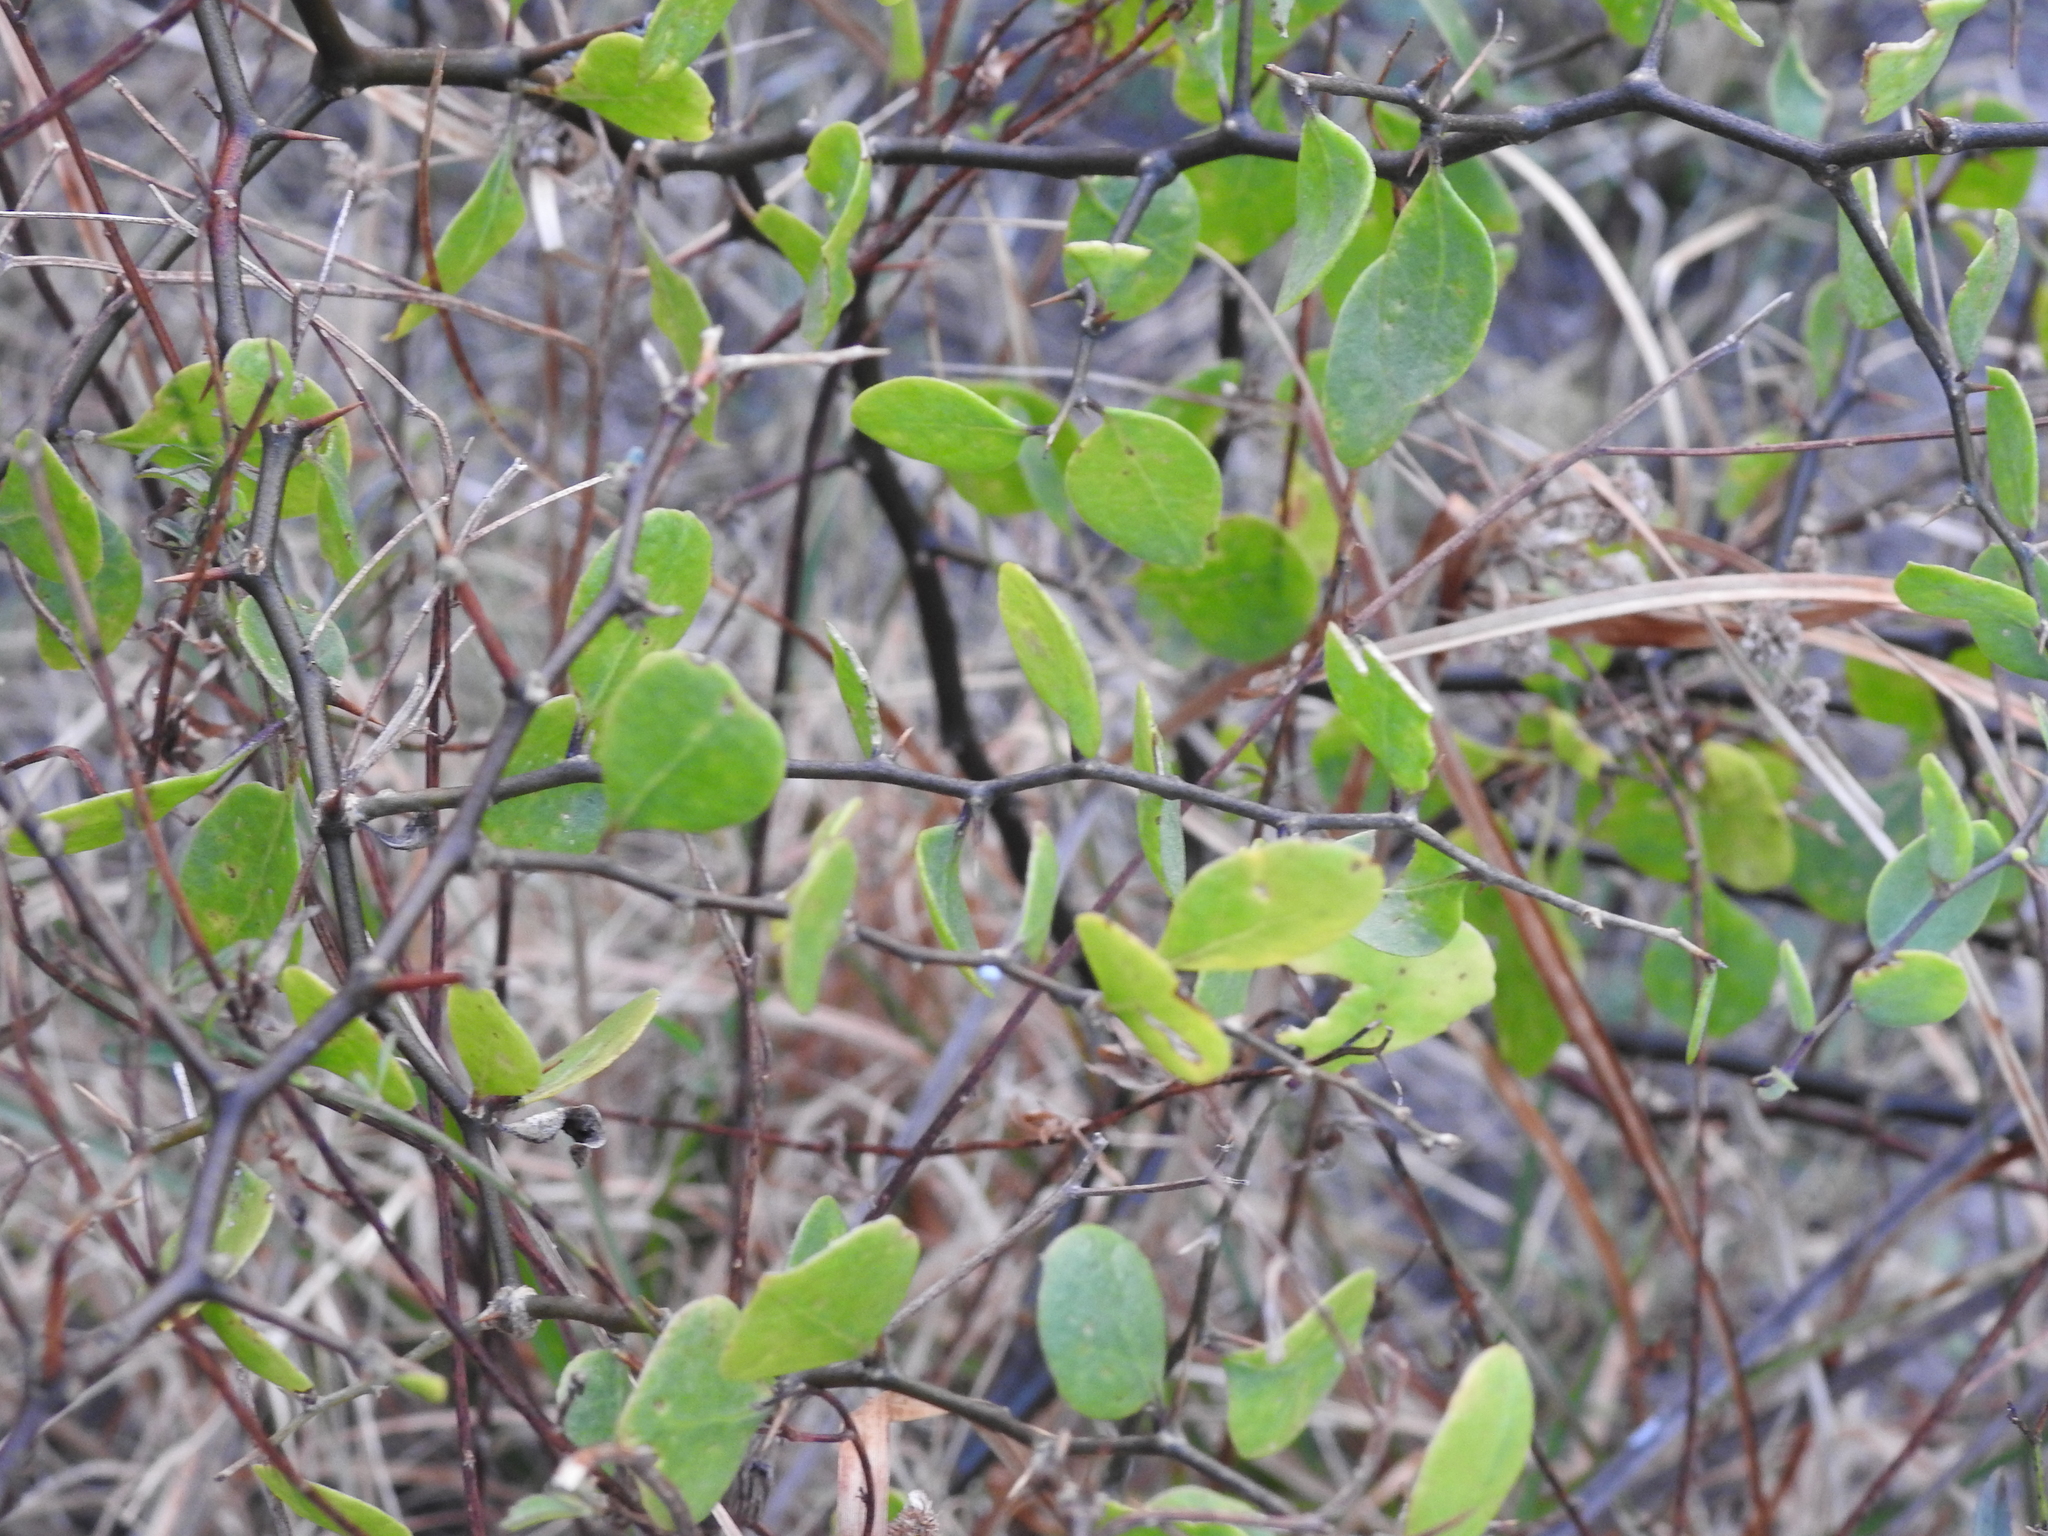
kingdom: Plantae
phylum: Tracheophyta
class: Magnoliopsida
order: Solanales
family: Solanaceae
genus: Lycium
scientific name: Lycium boerhaaviifolium
